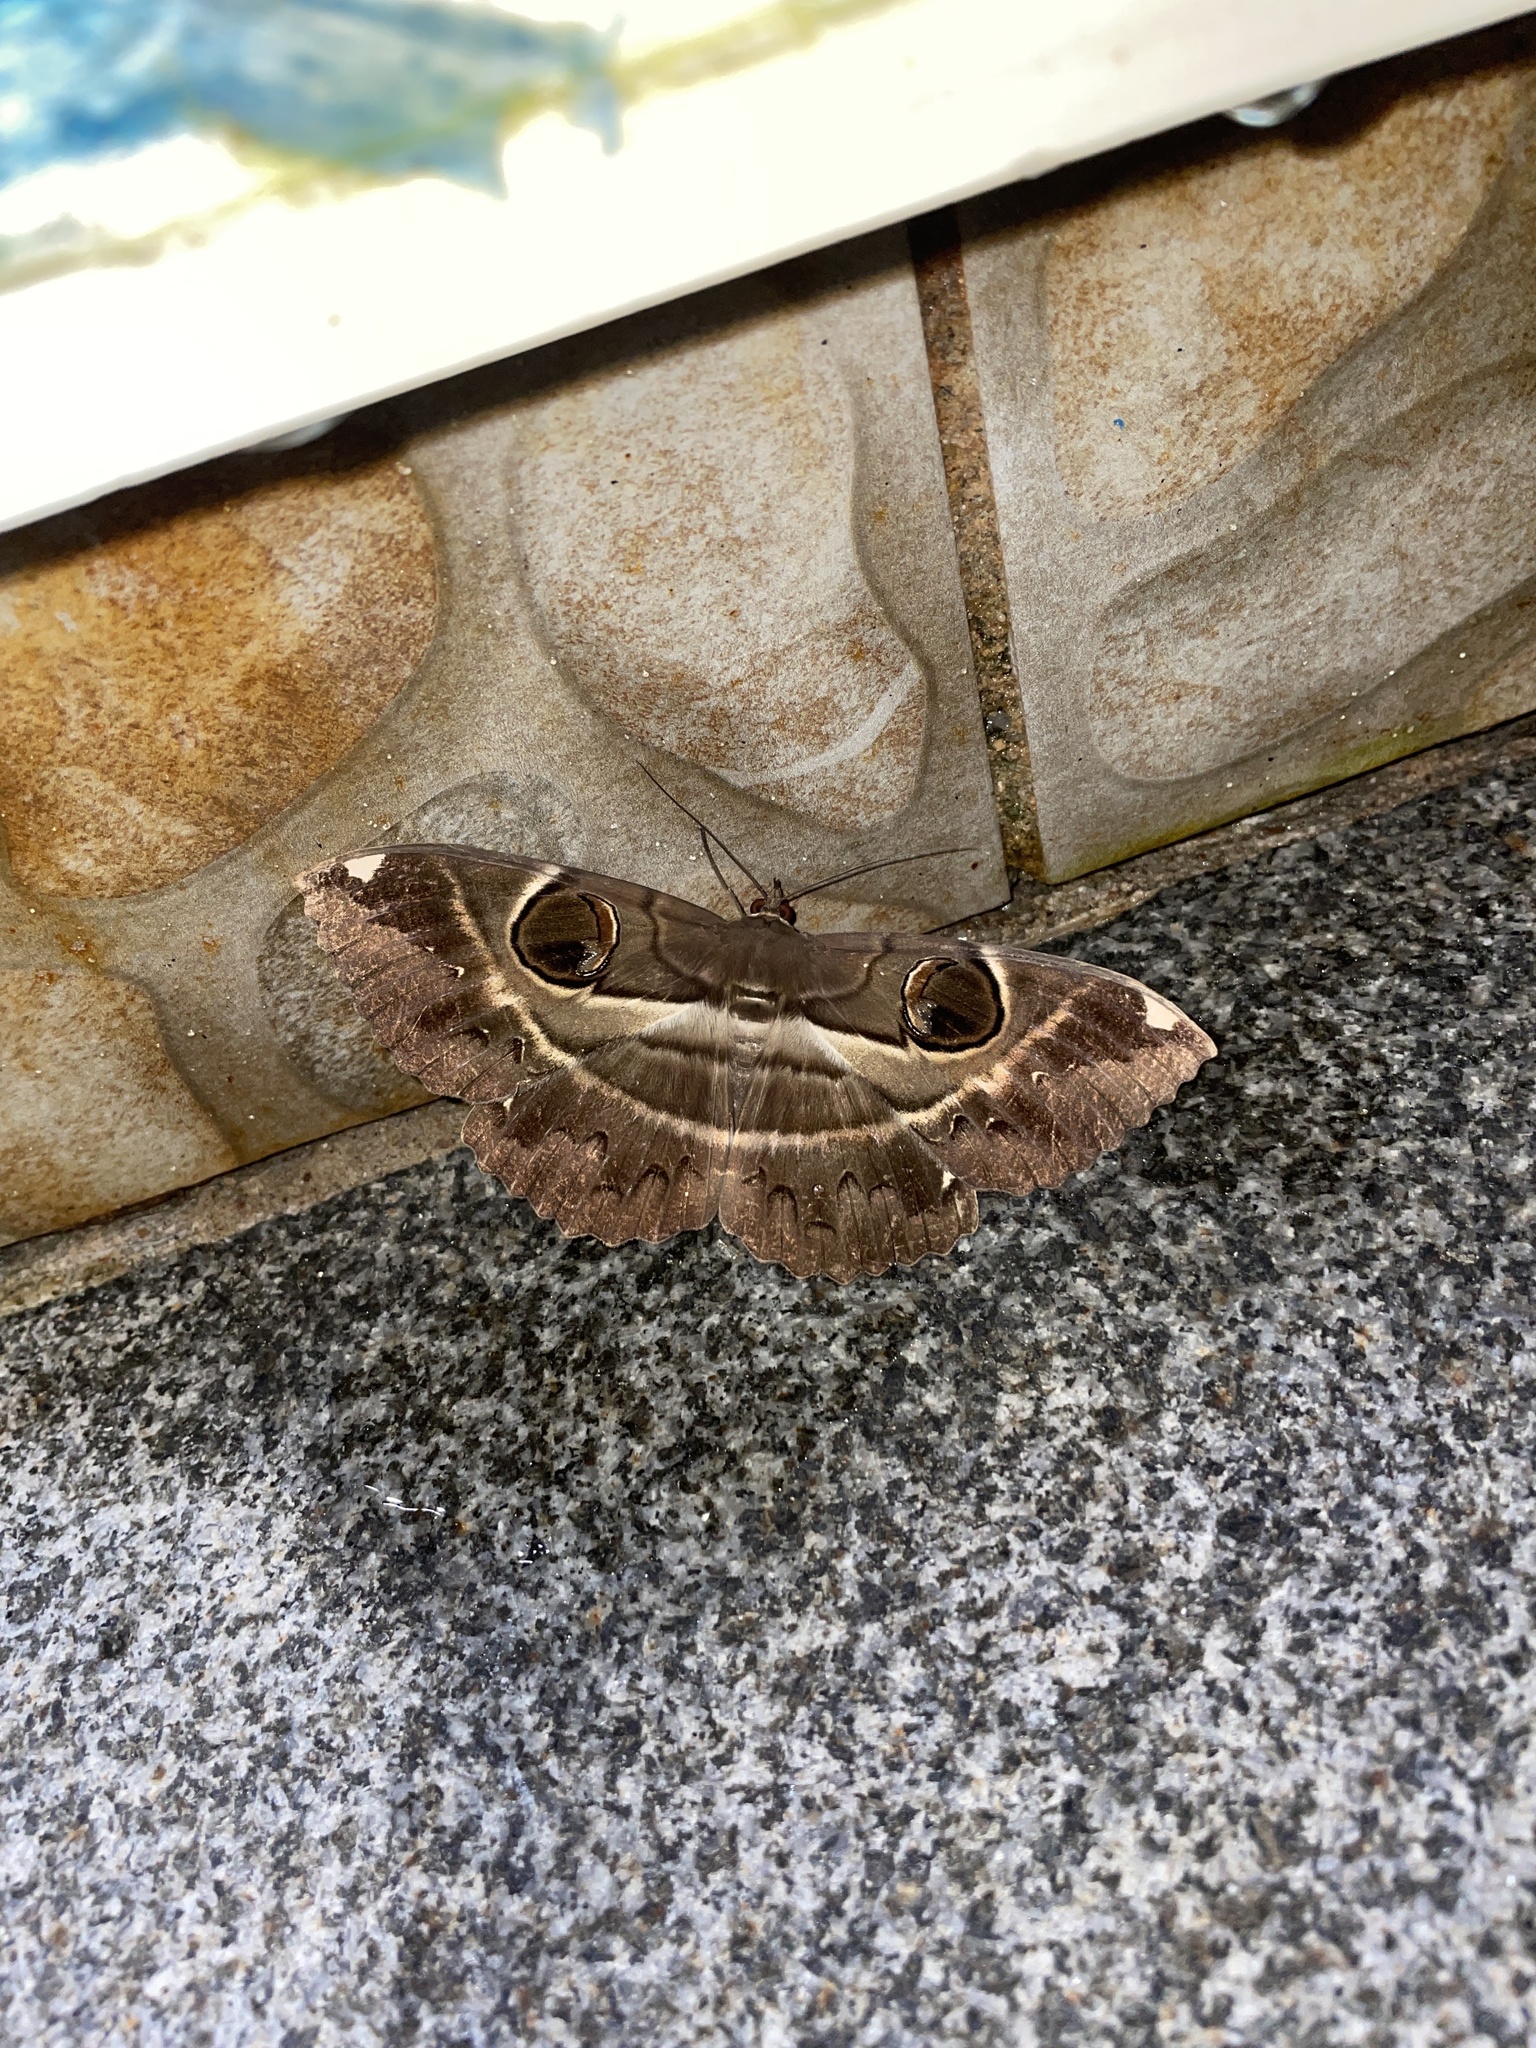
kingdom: Animalia
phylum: Arthropoda
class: Insecta
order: Lepidoptera
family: Erebidae
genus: Erebus
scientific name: Erebus ephesperis
